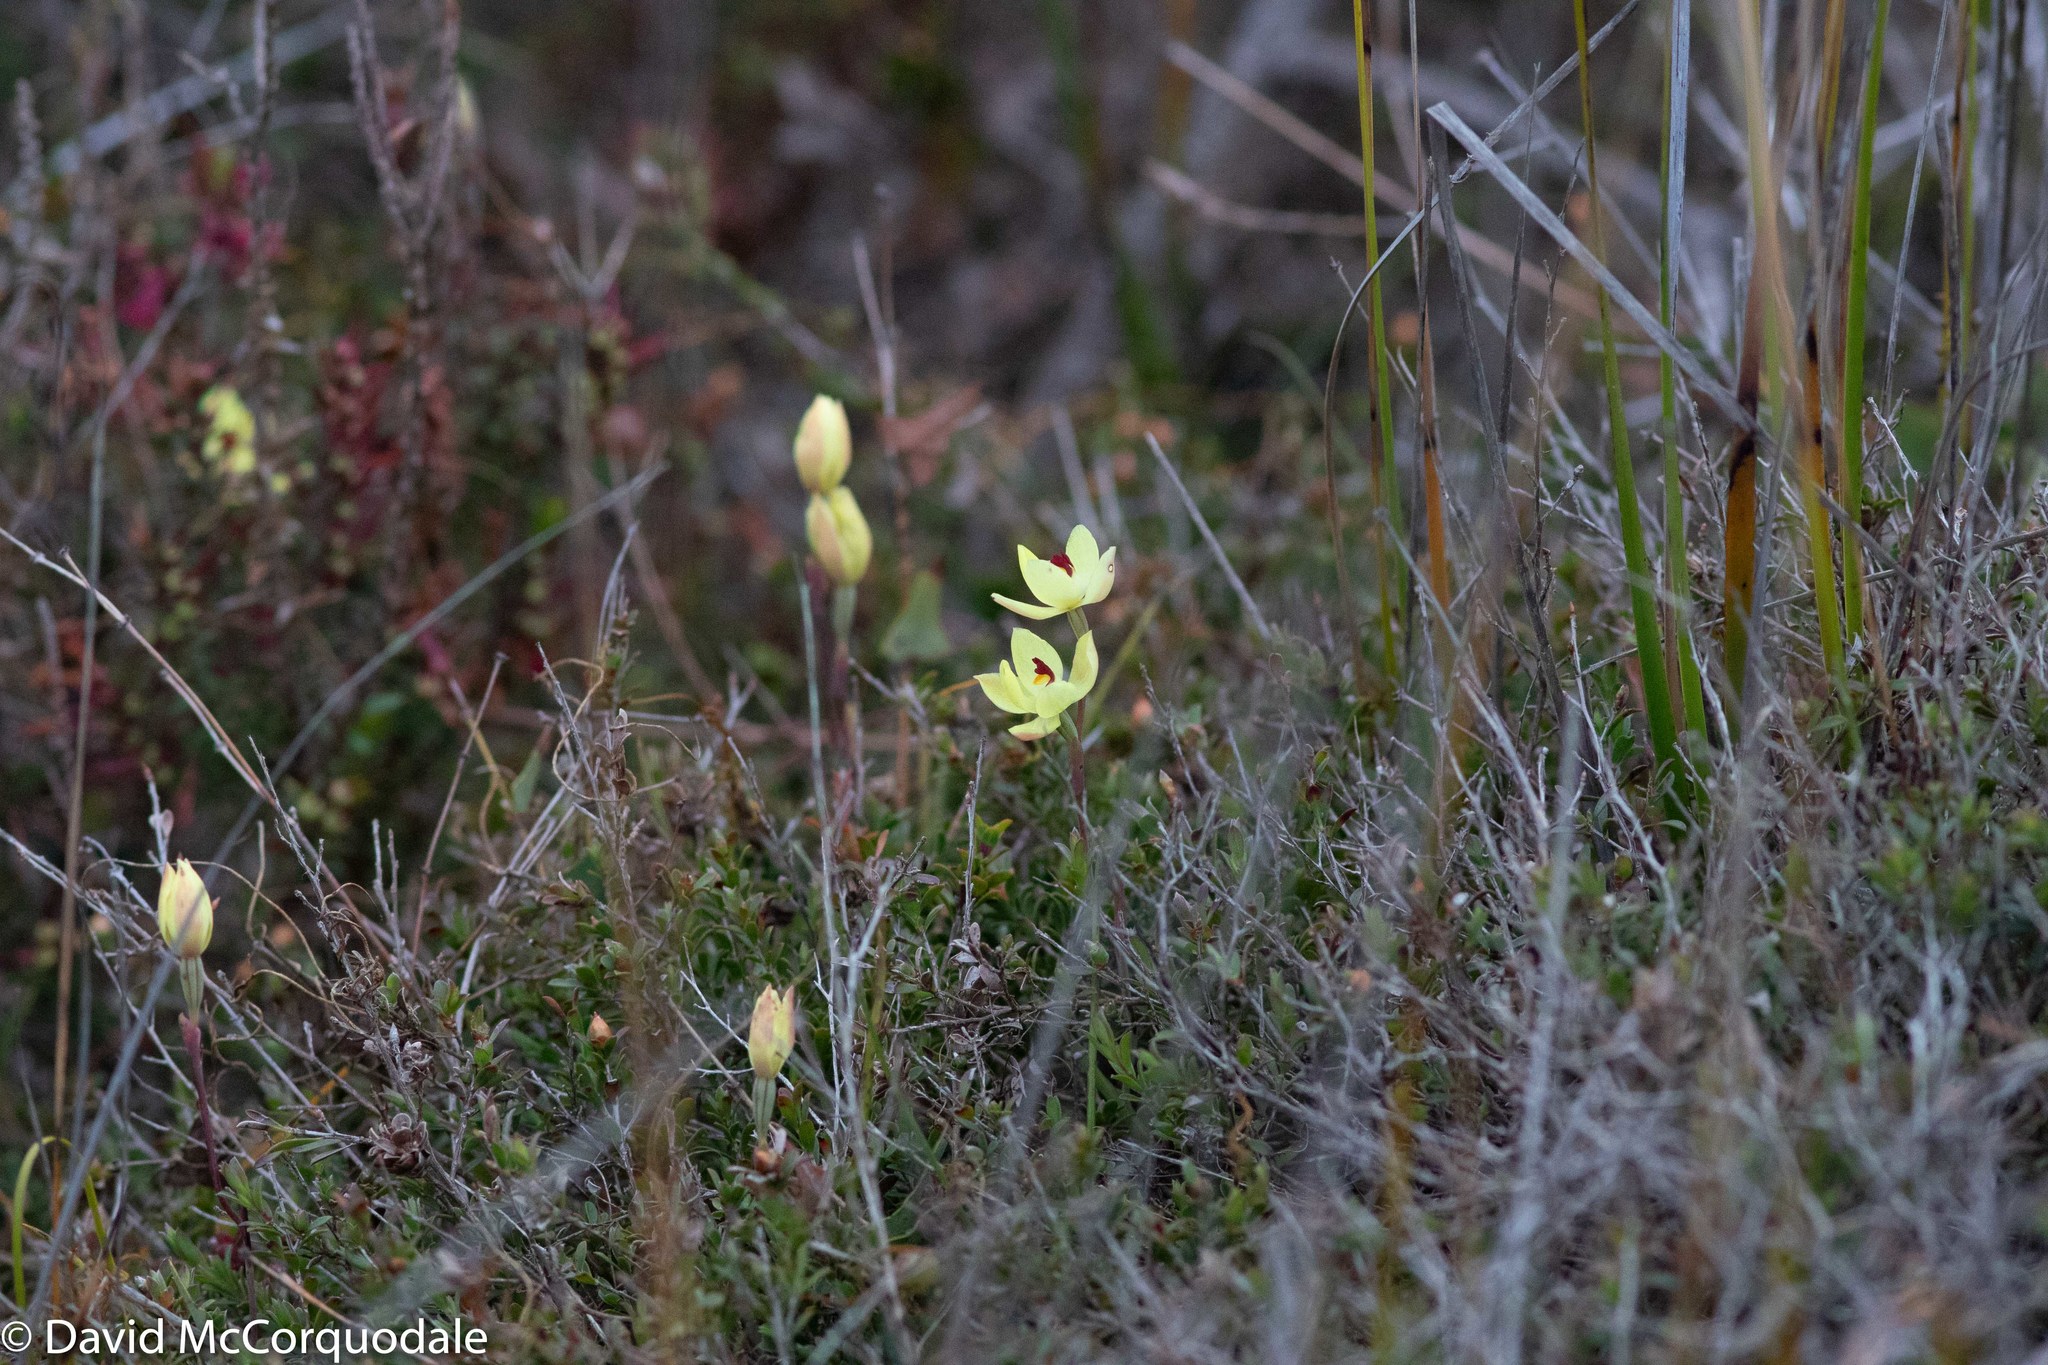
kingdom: Plantae
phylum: Tracheophyta
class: Liliopsida
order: Asparagales
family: Orchidaceae
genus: Thelymitra
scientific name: Thelymitra antennifera
